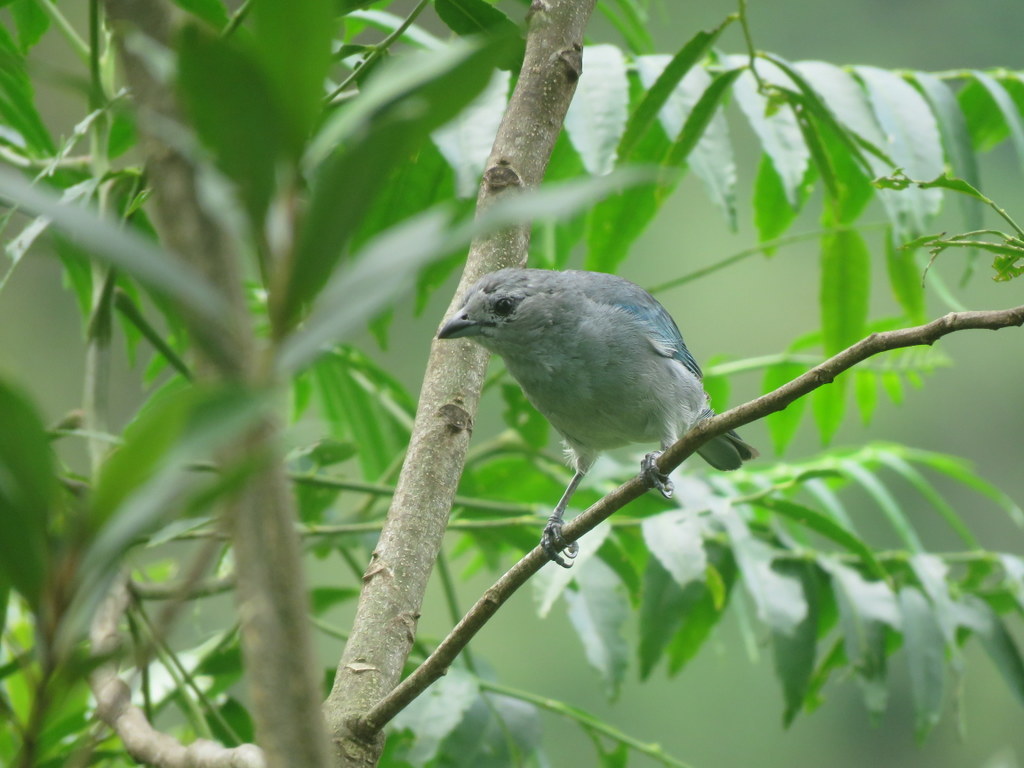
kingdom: Animalia
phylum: Chordata
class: Aves
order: Passeriformes
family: Thraupidae
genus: Thraupis
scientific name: Thraupis sayaca
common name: Sayaca tanager
